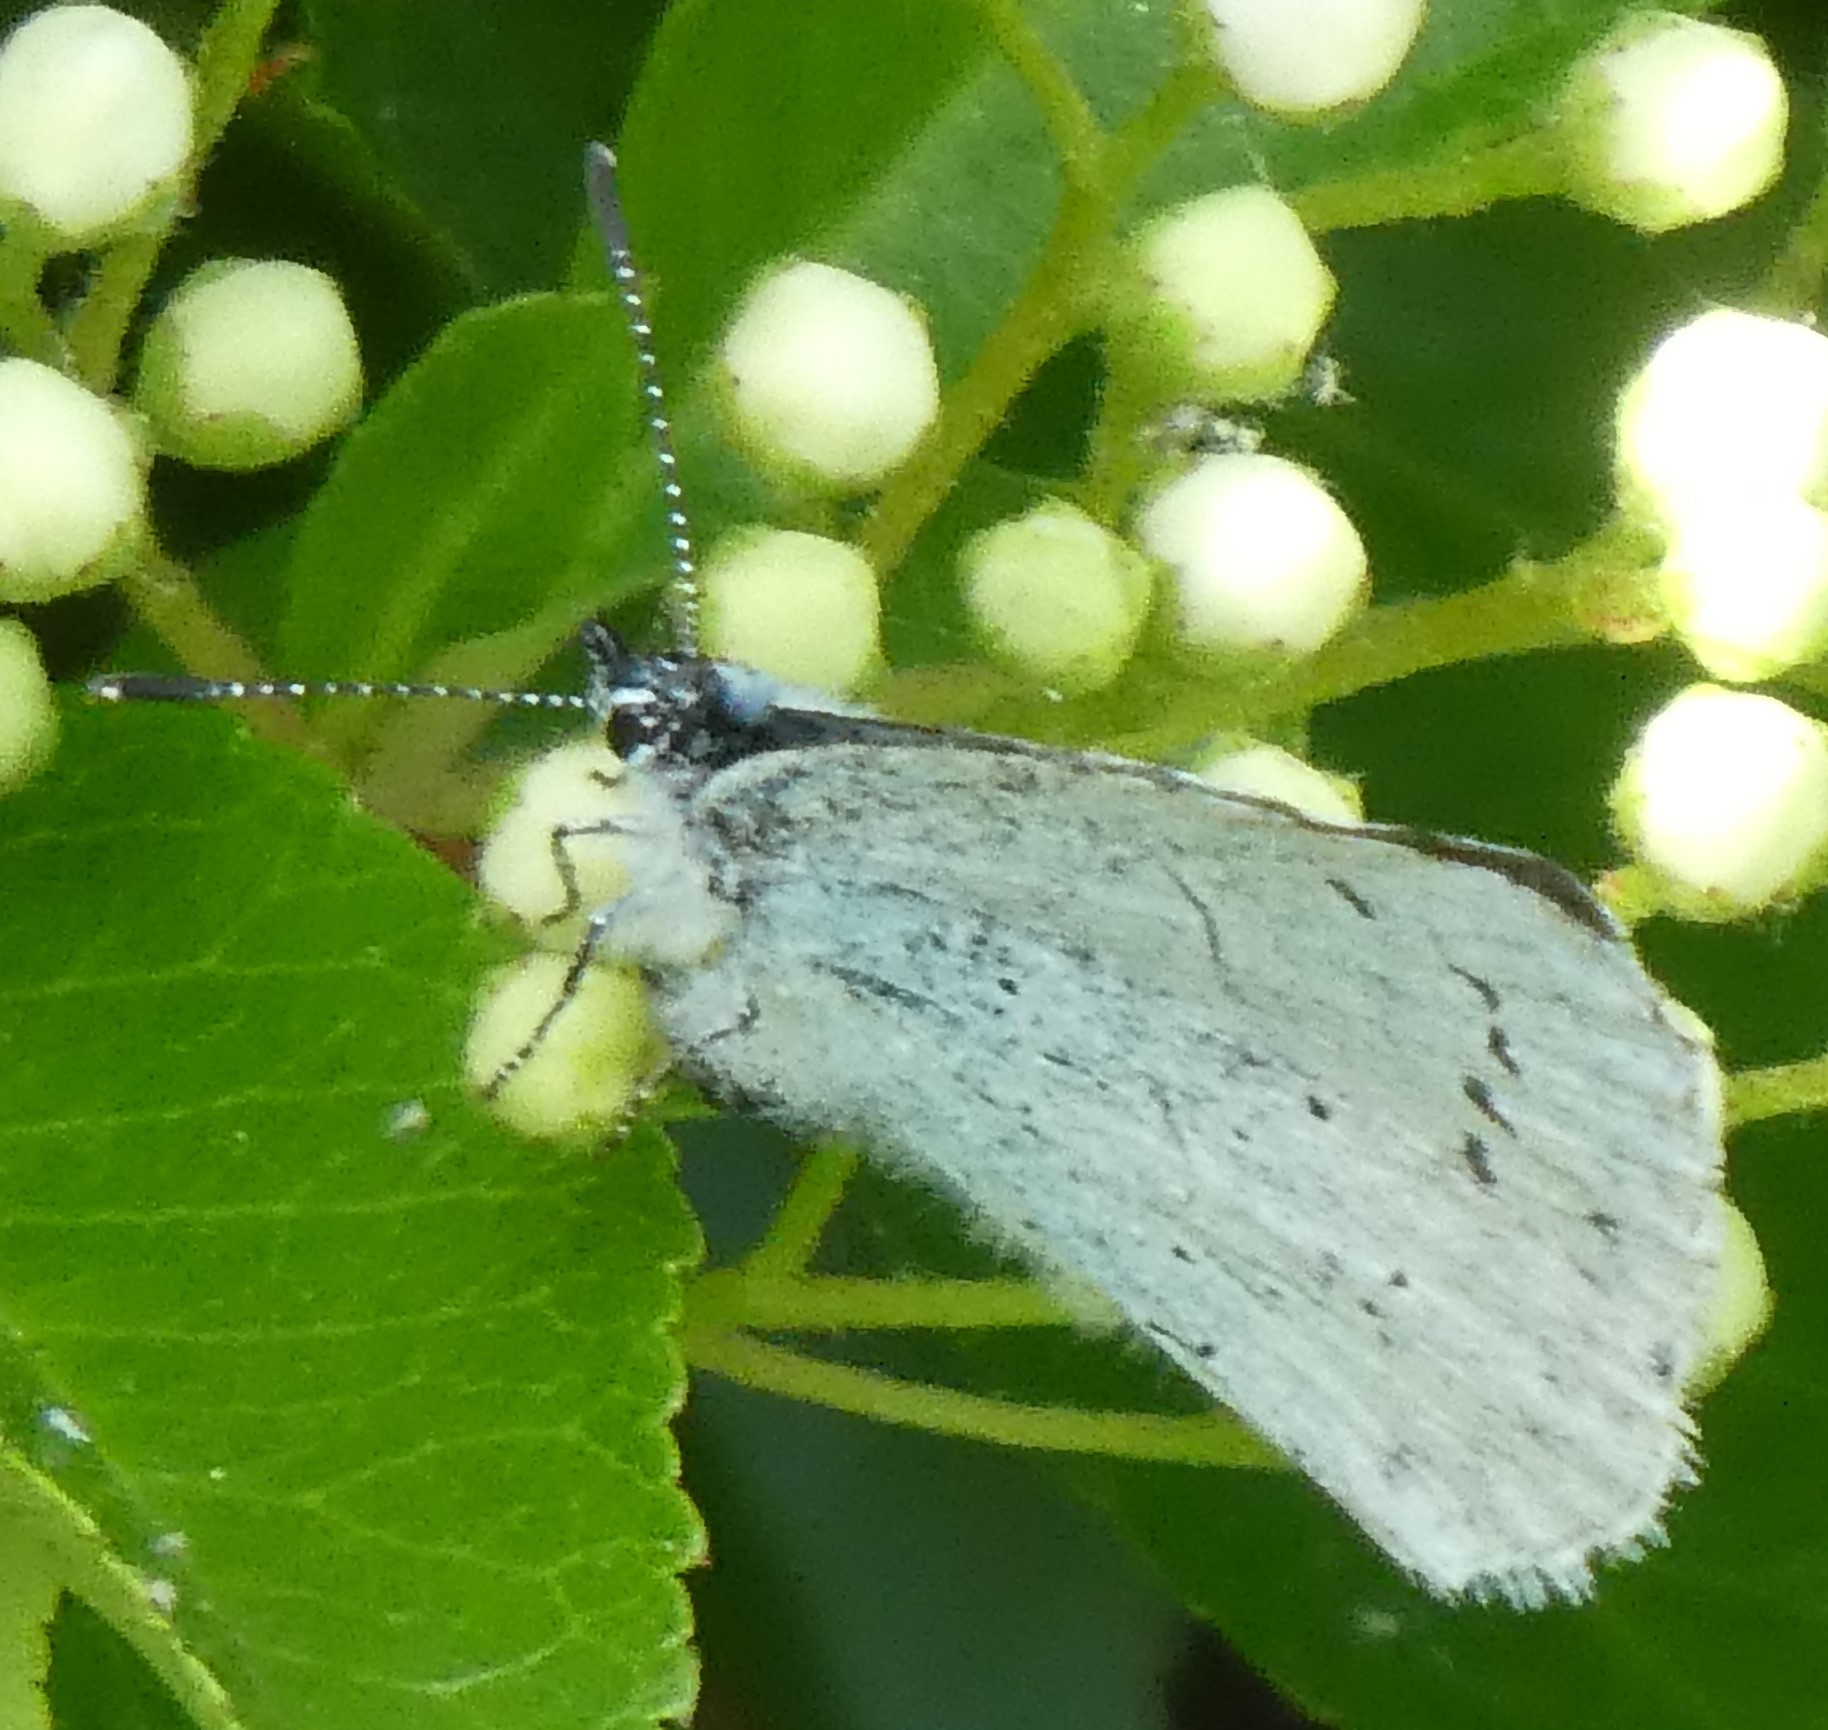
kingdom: Animalia
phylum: Arthropoda
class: Insecta
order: Lepidoptera
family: Lycaenidae
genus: Celastrina
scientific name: Celastrina argiolus
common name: Holly blue
